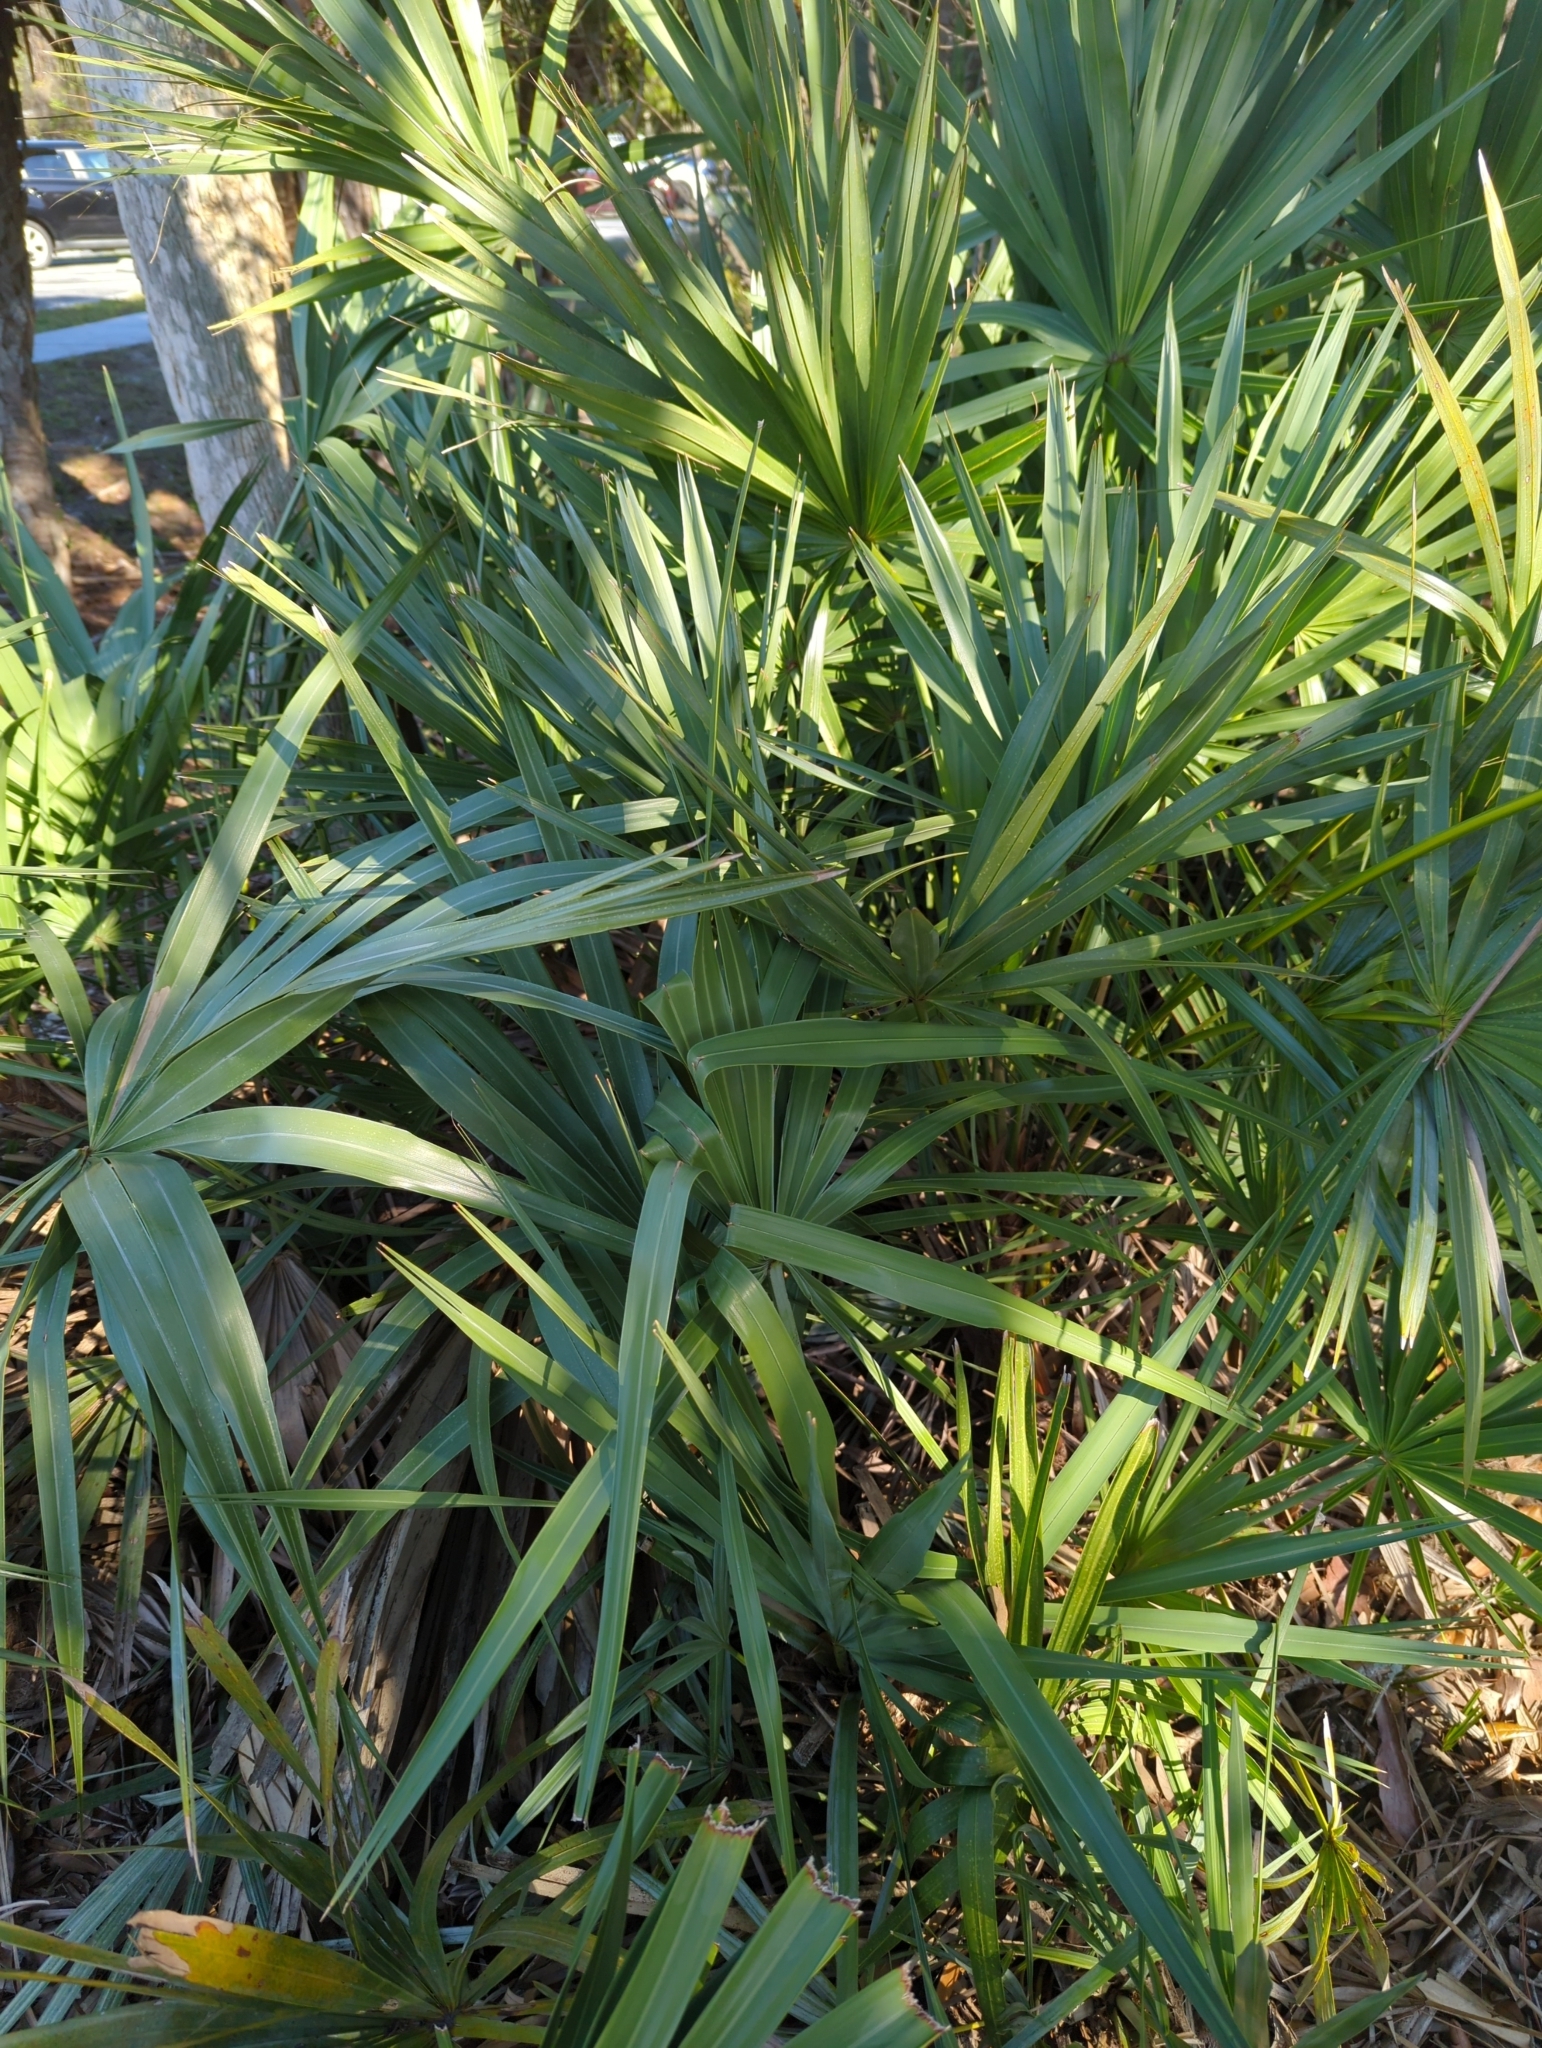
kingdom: Plantae
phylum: Tracheophyta
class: Liliopsida
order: Arecales
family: Arecaceae
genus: Serenoa
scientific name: Serenoa repens
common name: Saw-palmetto
